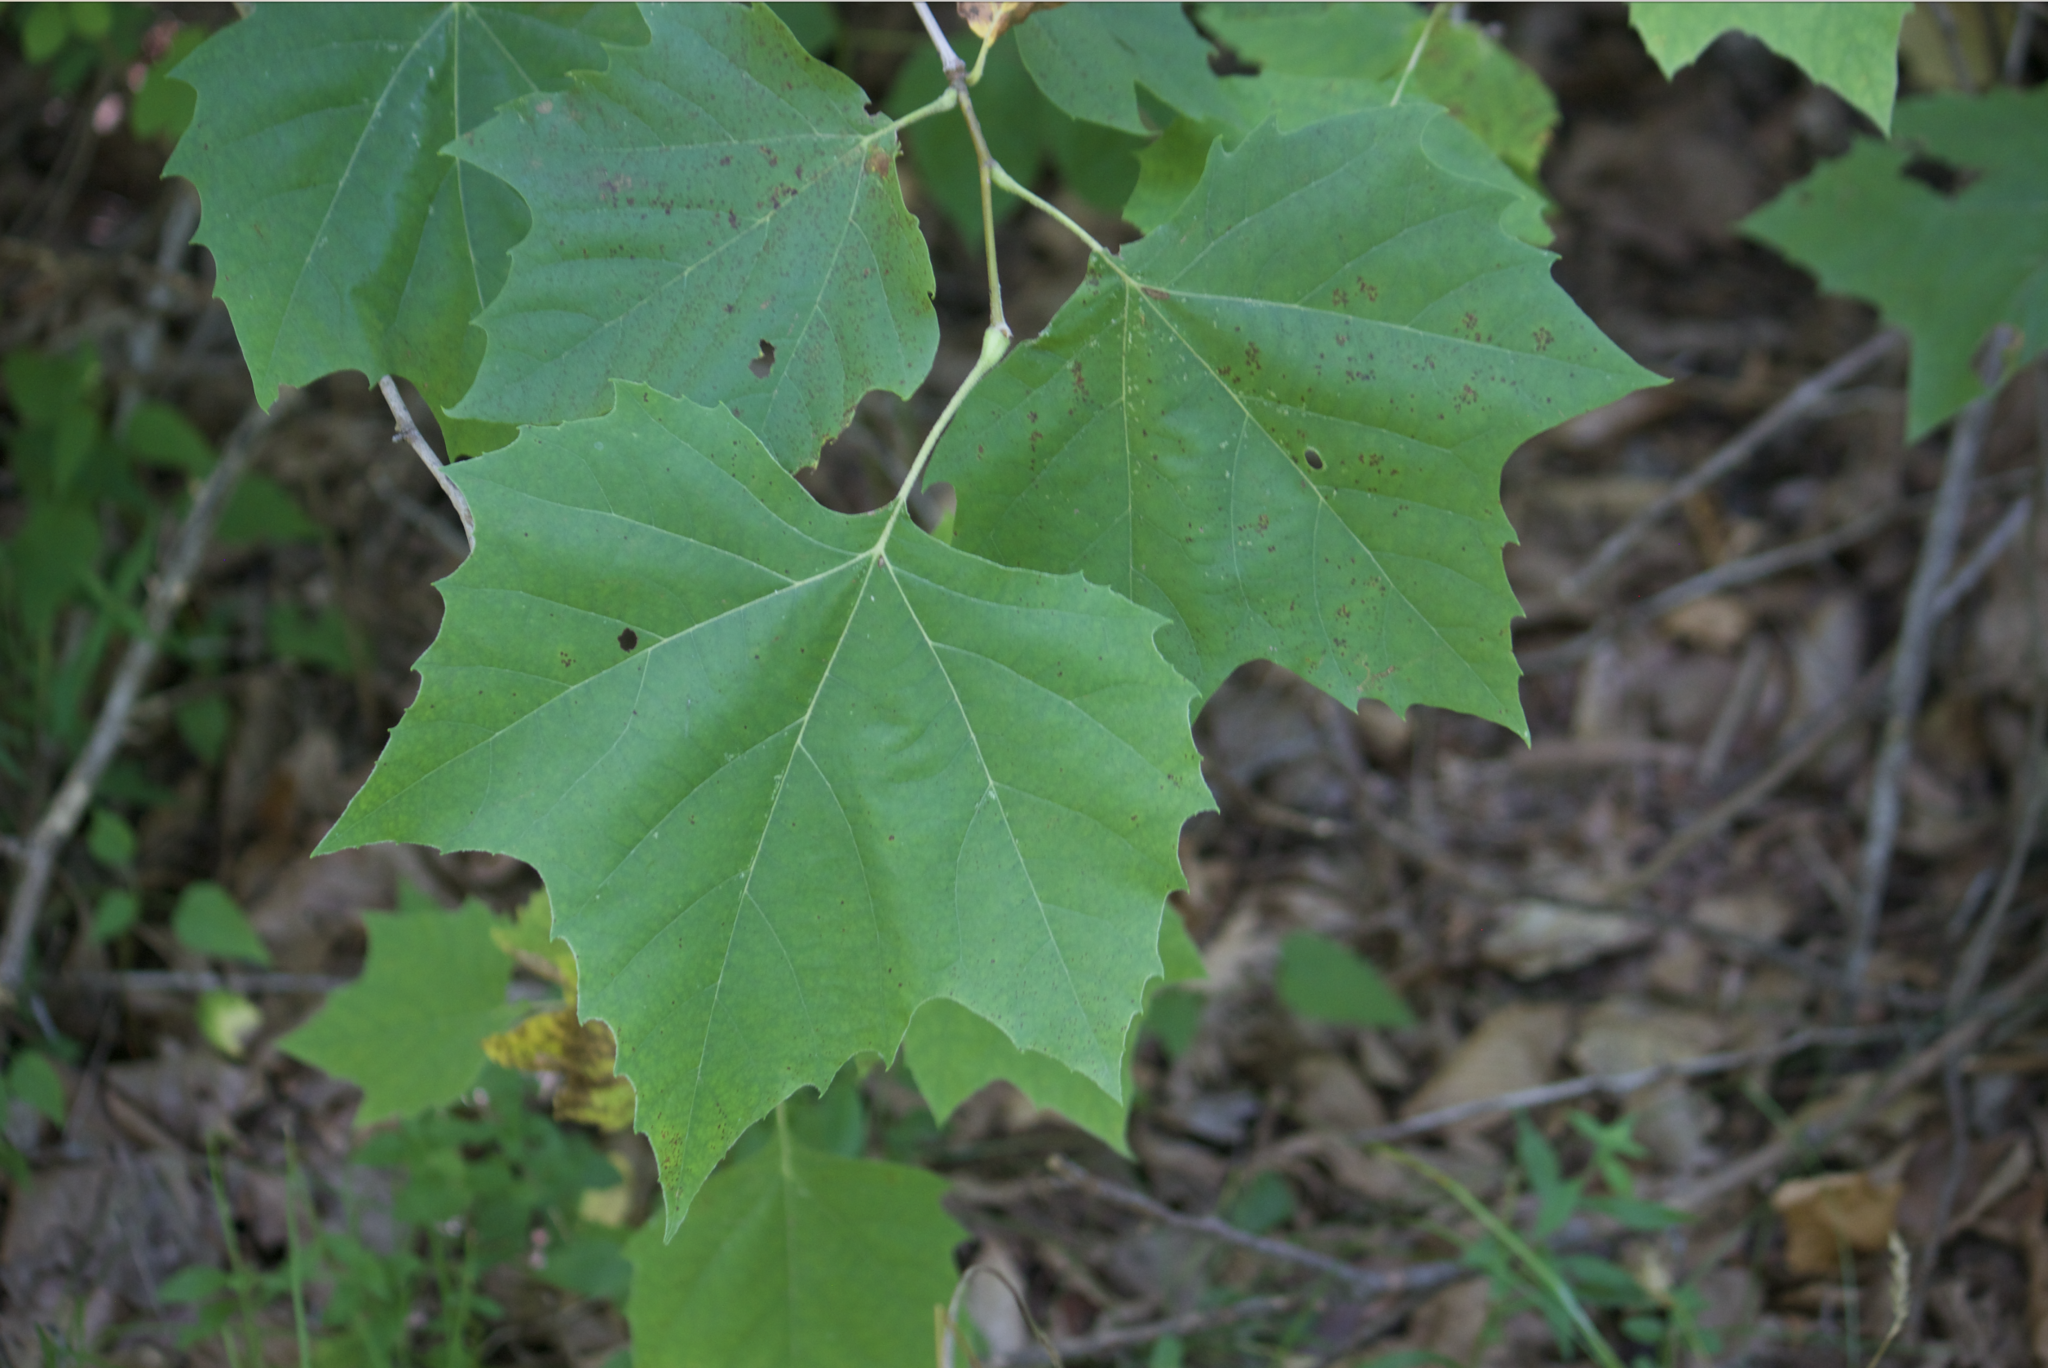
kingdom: Plantae
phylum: Tracheophyta
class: Magnoliopsida
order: Proteales
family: Platanaceae
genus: Platanus
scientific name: Platanus occidentalis
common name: American sycamore
